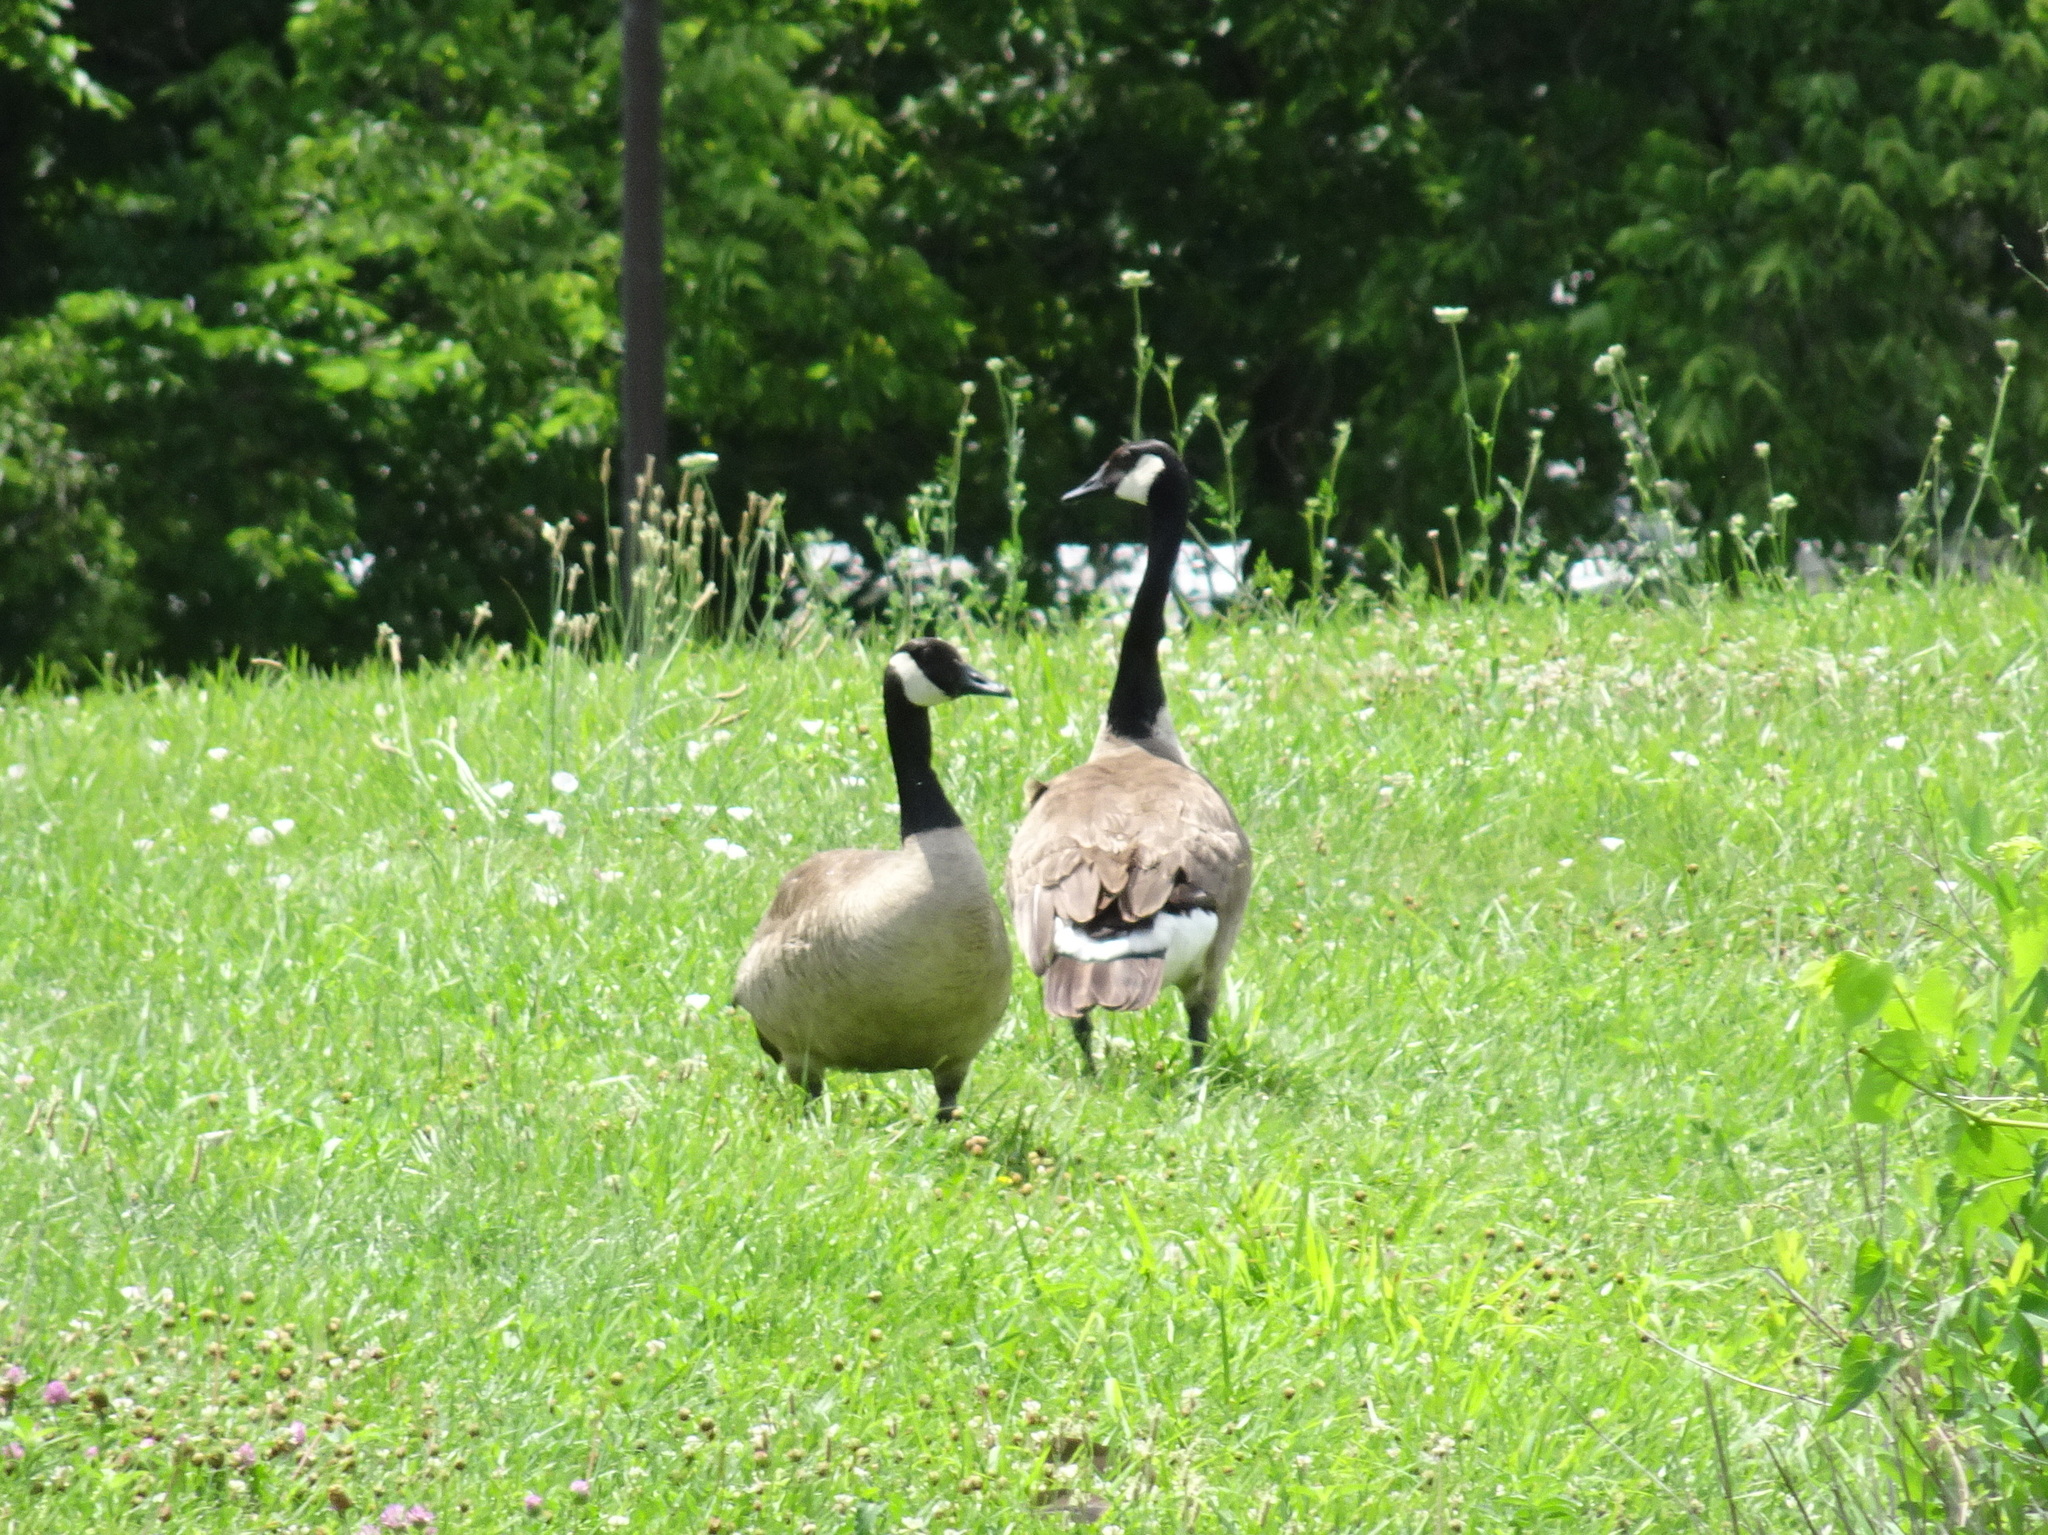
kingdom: Animalia
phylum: Chordata
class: Aves
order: Anseriformes
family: Anatidae
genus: Branta
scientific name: Branta canadensis
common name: Canada goose
